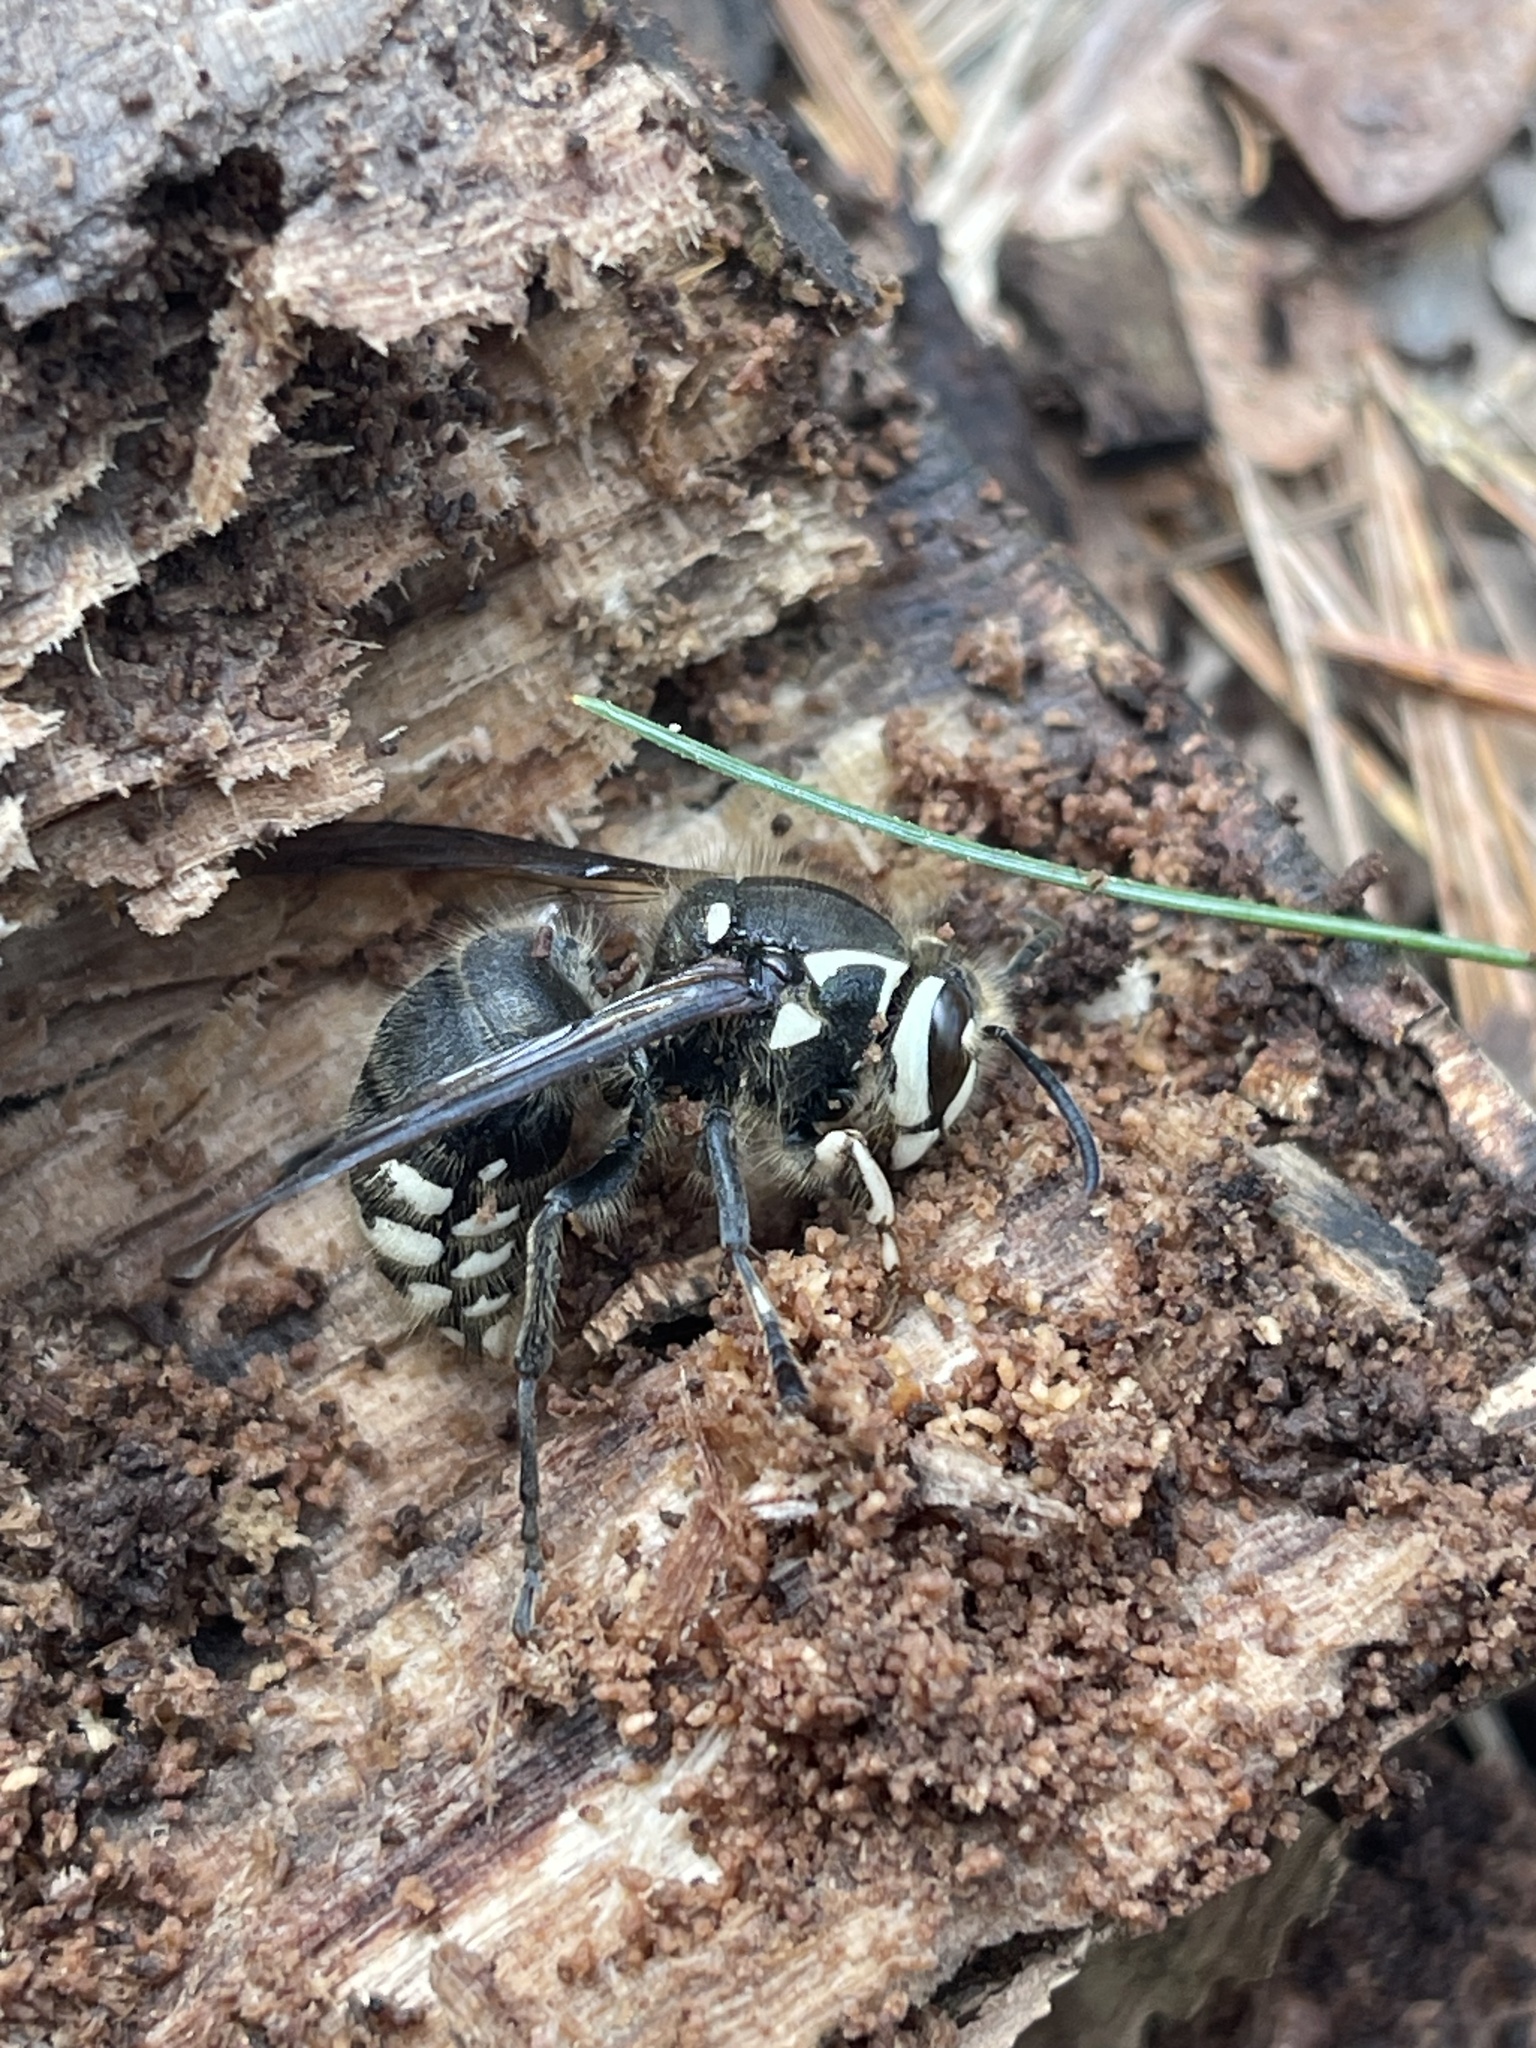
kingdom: Animalia
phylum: Arthropoda
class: Insecta
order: Hymenoptera
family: Vespidae
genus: Dolichovespula
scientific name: Dolichovespula maculata
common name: Bald-faced hornet
